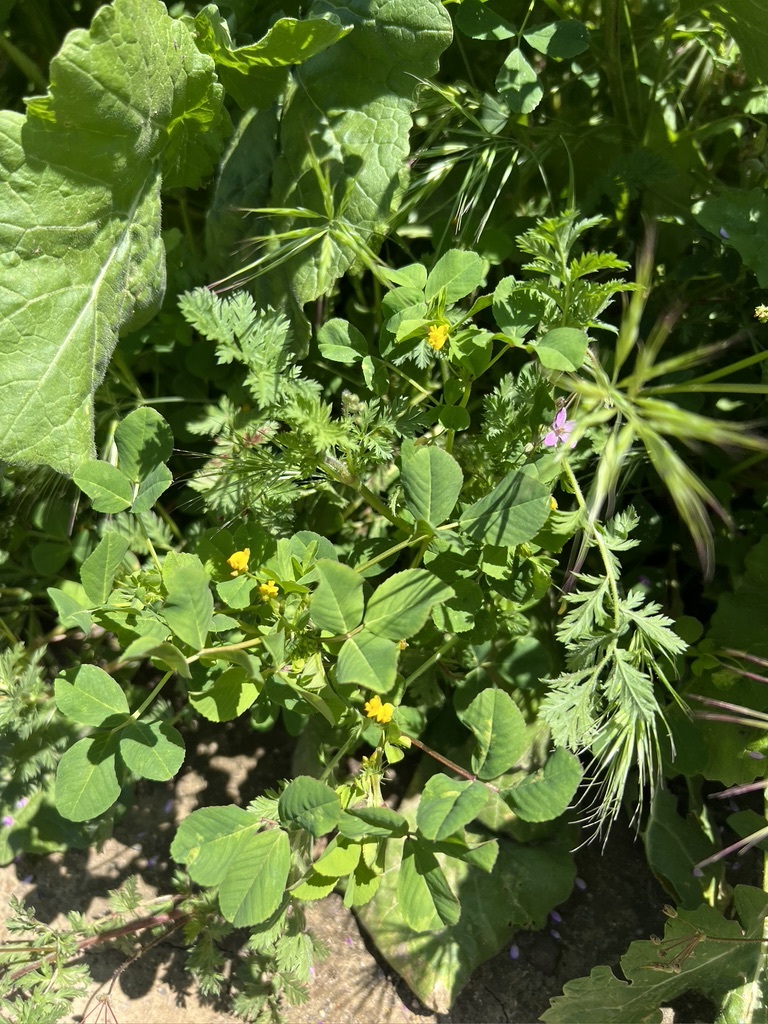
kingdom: Plantae
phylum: Tracheophyta
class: Magnoliopsida
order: Fabales
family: Fabaceae
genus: Medicago
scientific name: Medicago polymorpha
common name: Burclover
